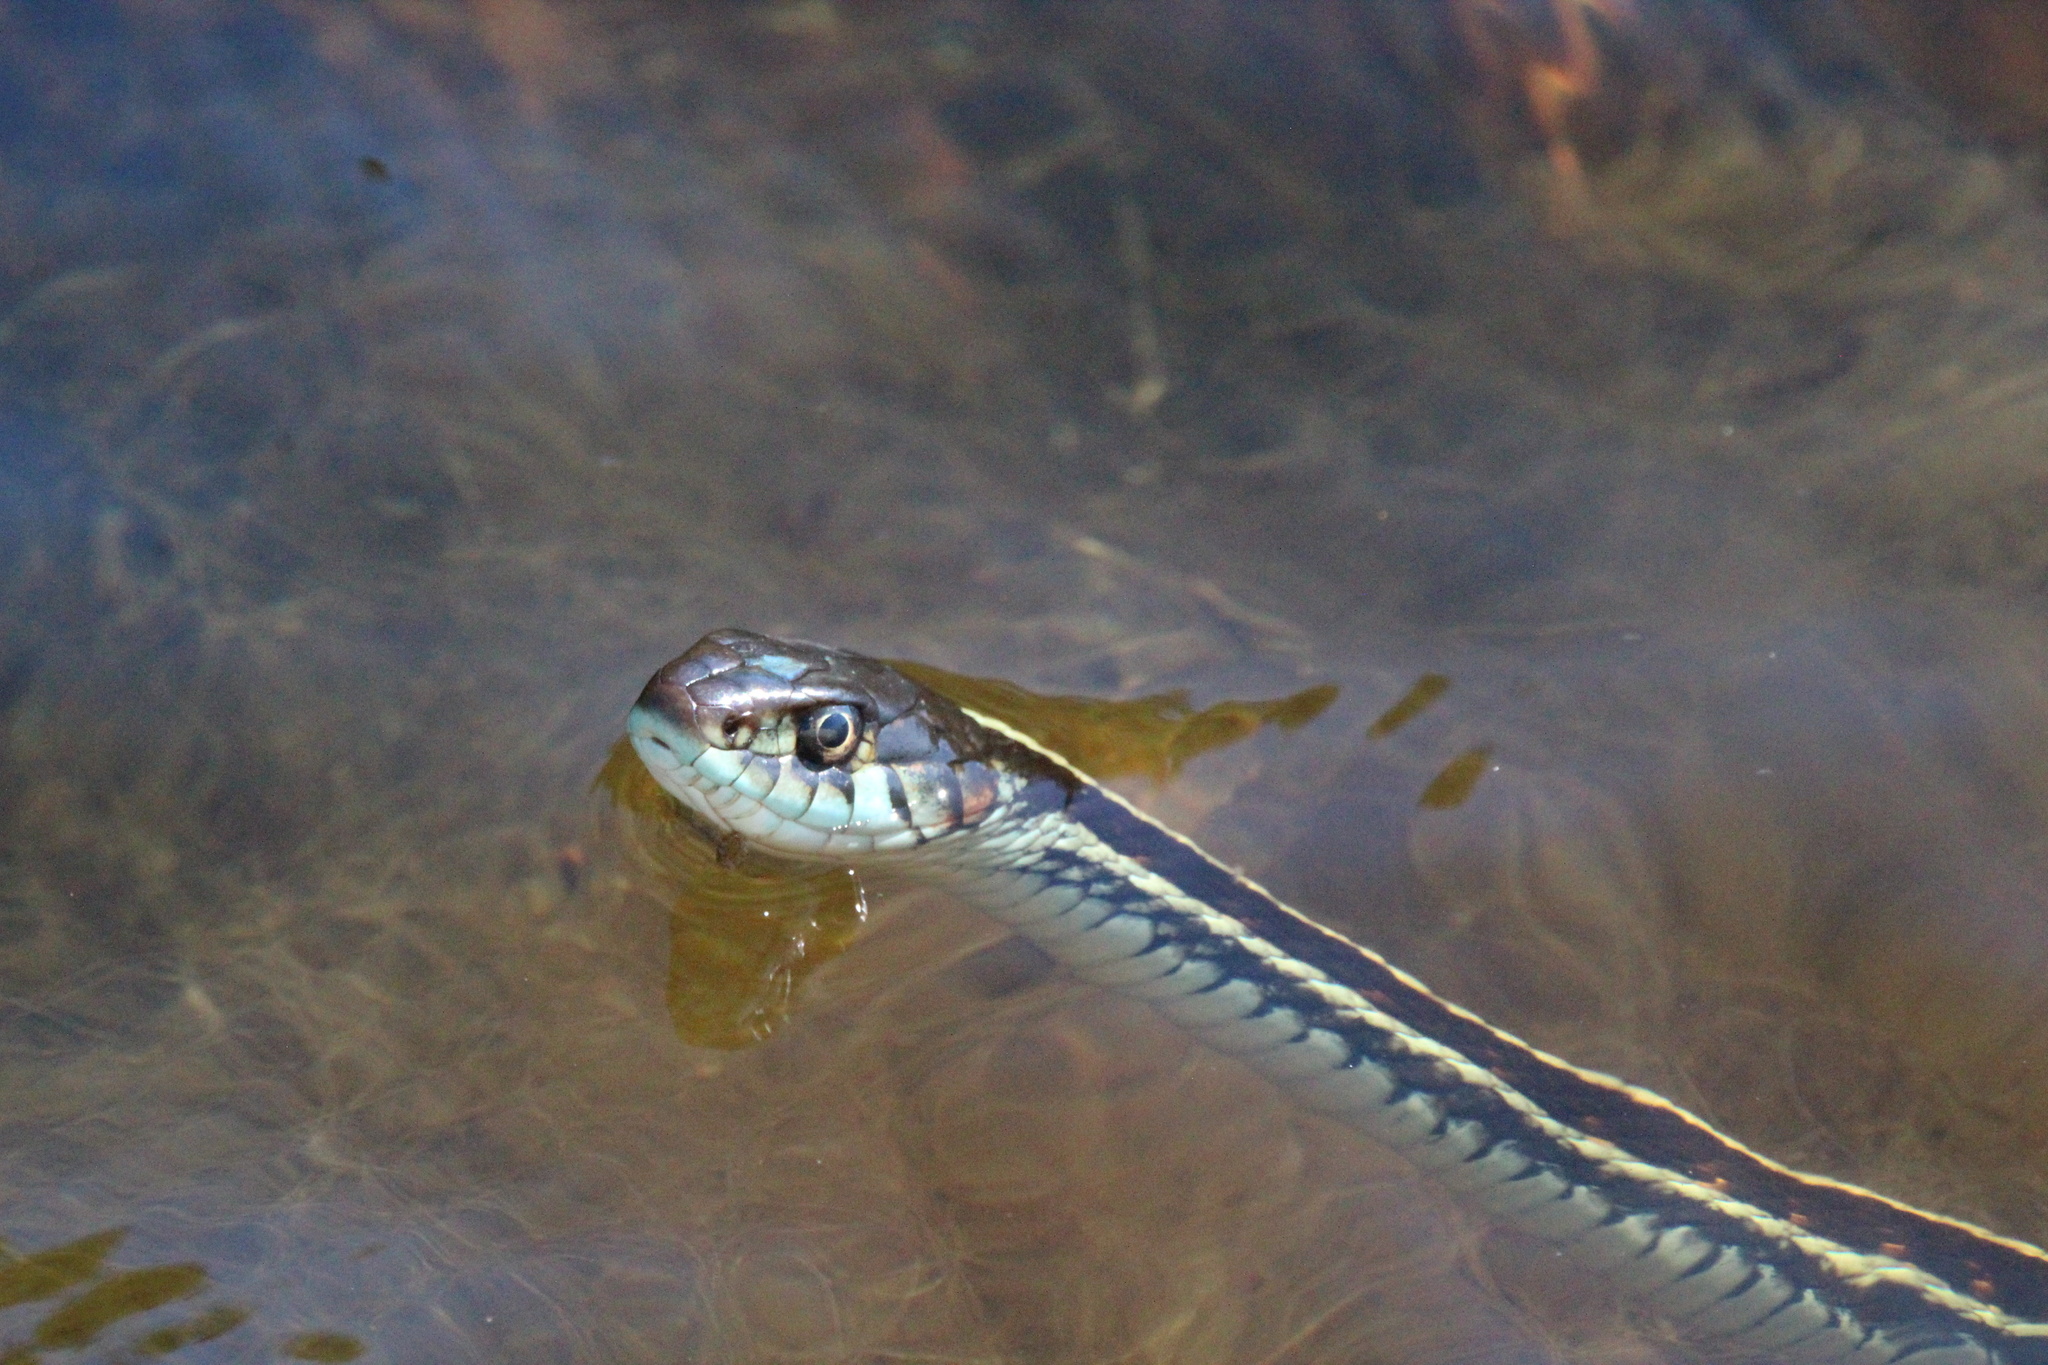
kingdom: Animalia
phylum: Chordata
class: Squamata
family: Colubridae
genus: Thamnophis
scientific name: Thamnophis sirtalis
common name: Common garter snake
